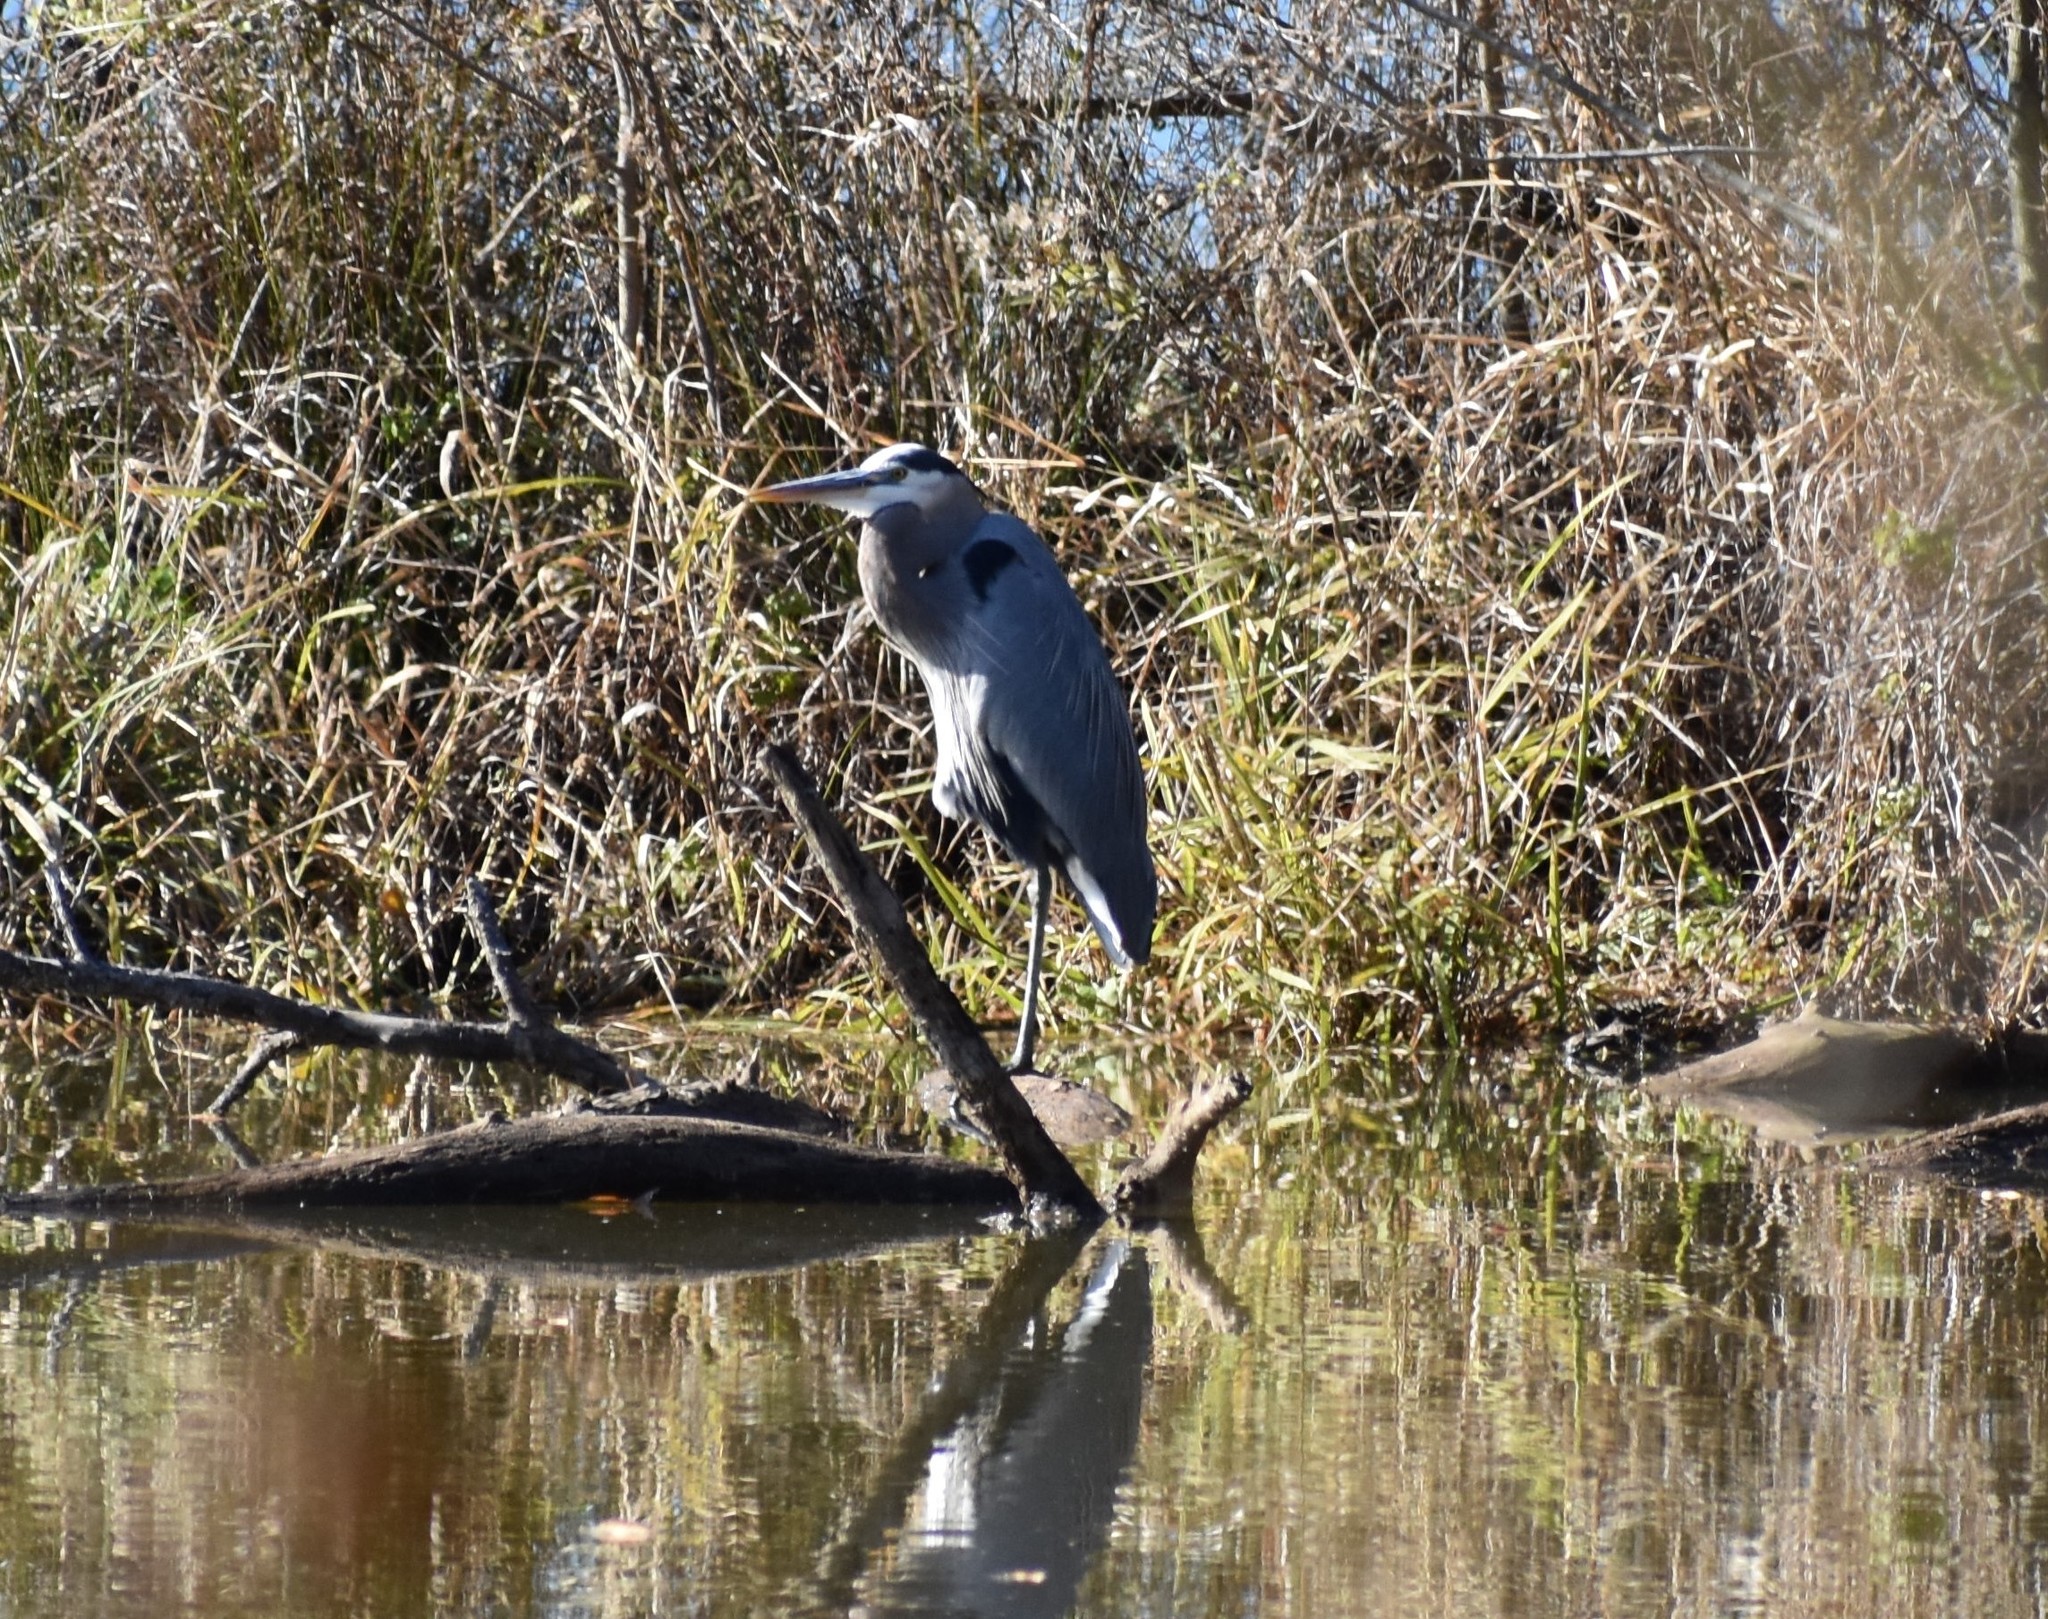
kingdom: Animalia
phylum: Chordata
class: Aves
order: Pelecaniformes
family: Ardeidae
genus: Ardea
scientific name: Ardea herodias
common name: Great blue heron
